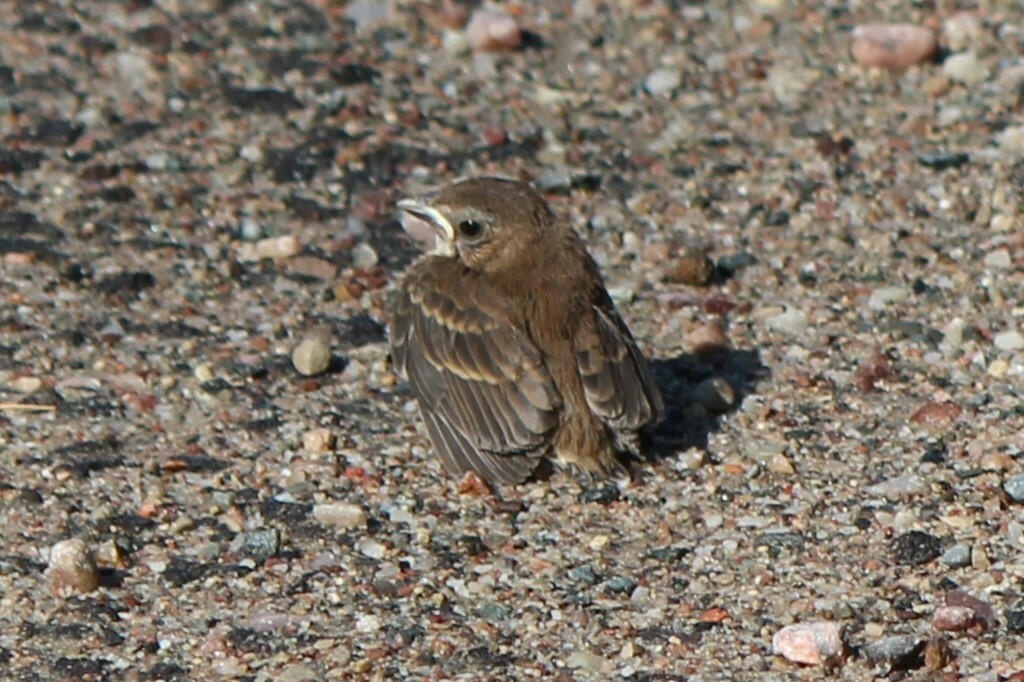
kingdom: Animalia
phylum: Chordata
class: Aves
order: Passeriformes
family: Cardinalidae
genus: Passerina
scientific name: Passerina cyanea
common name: Indigo bunting
